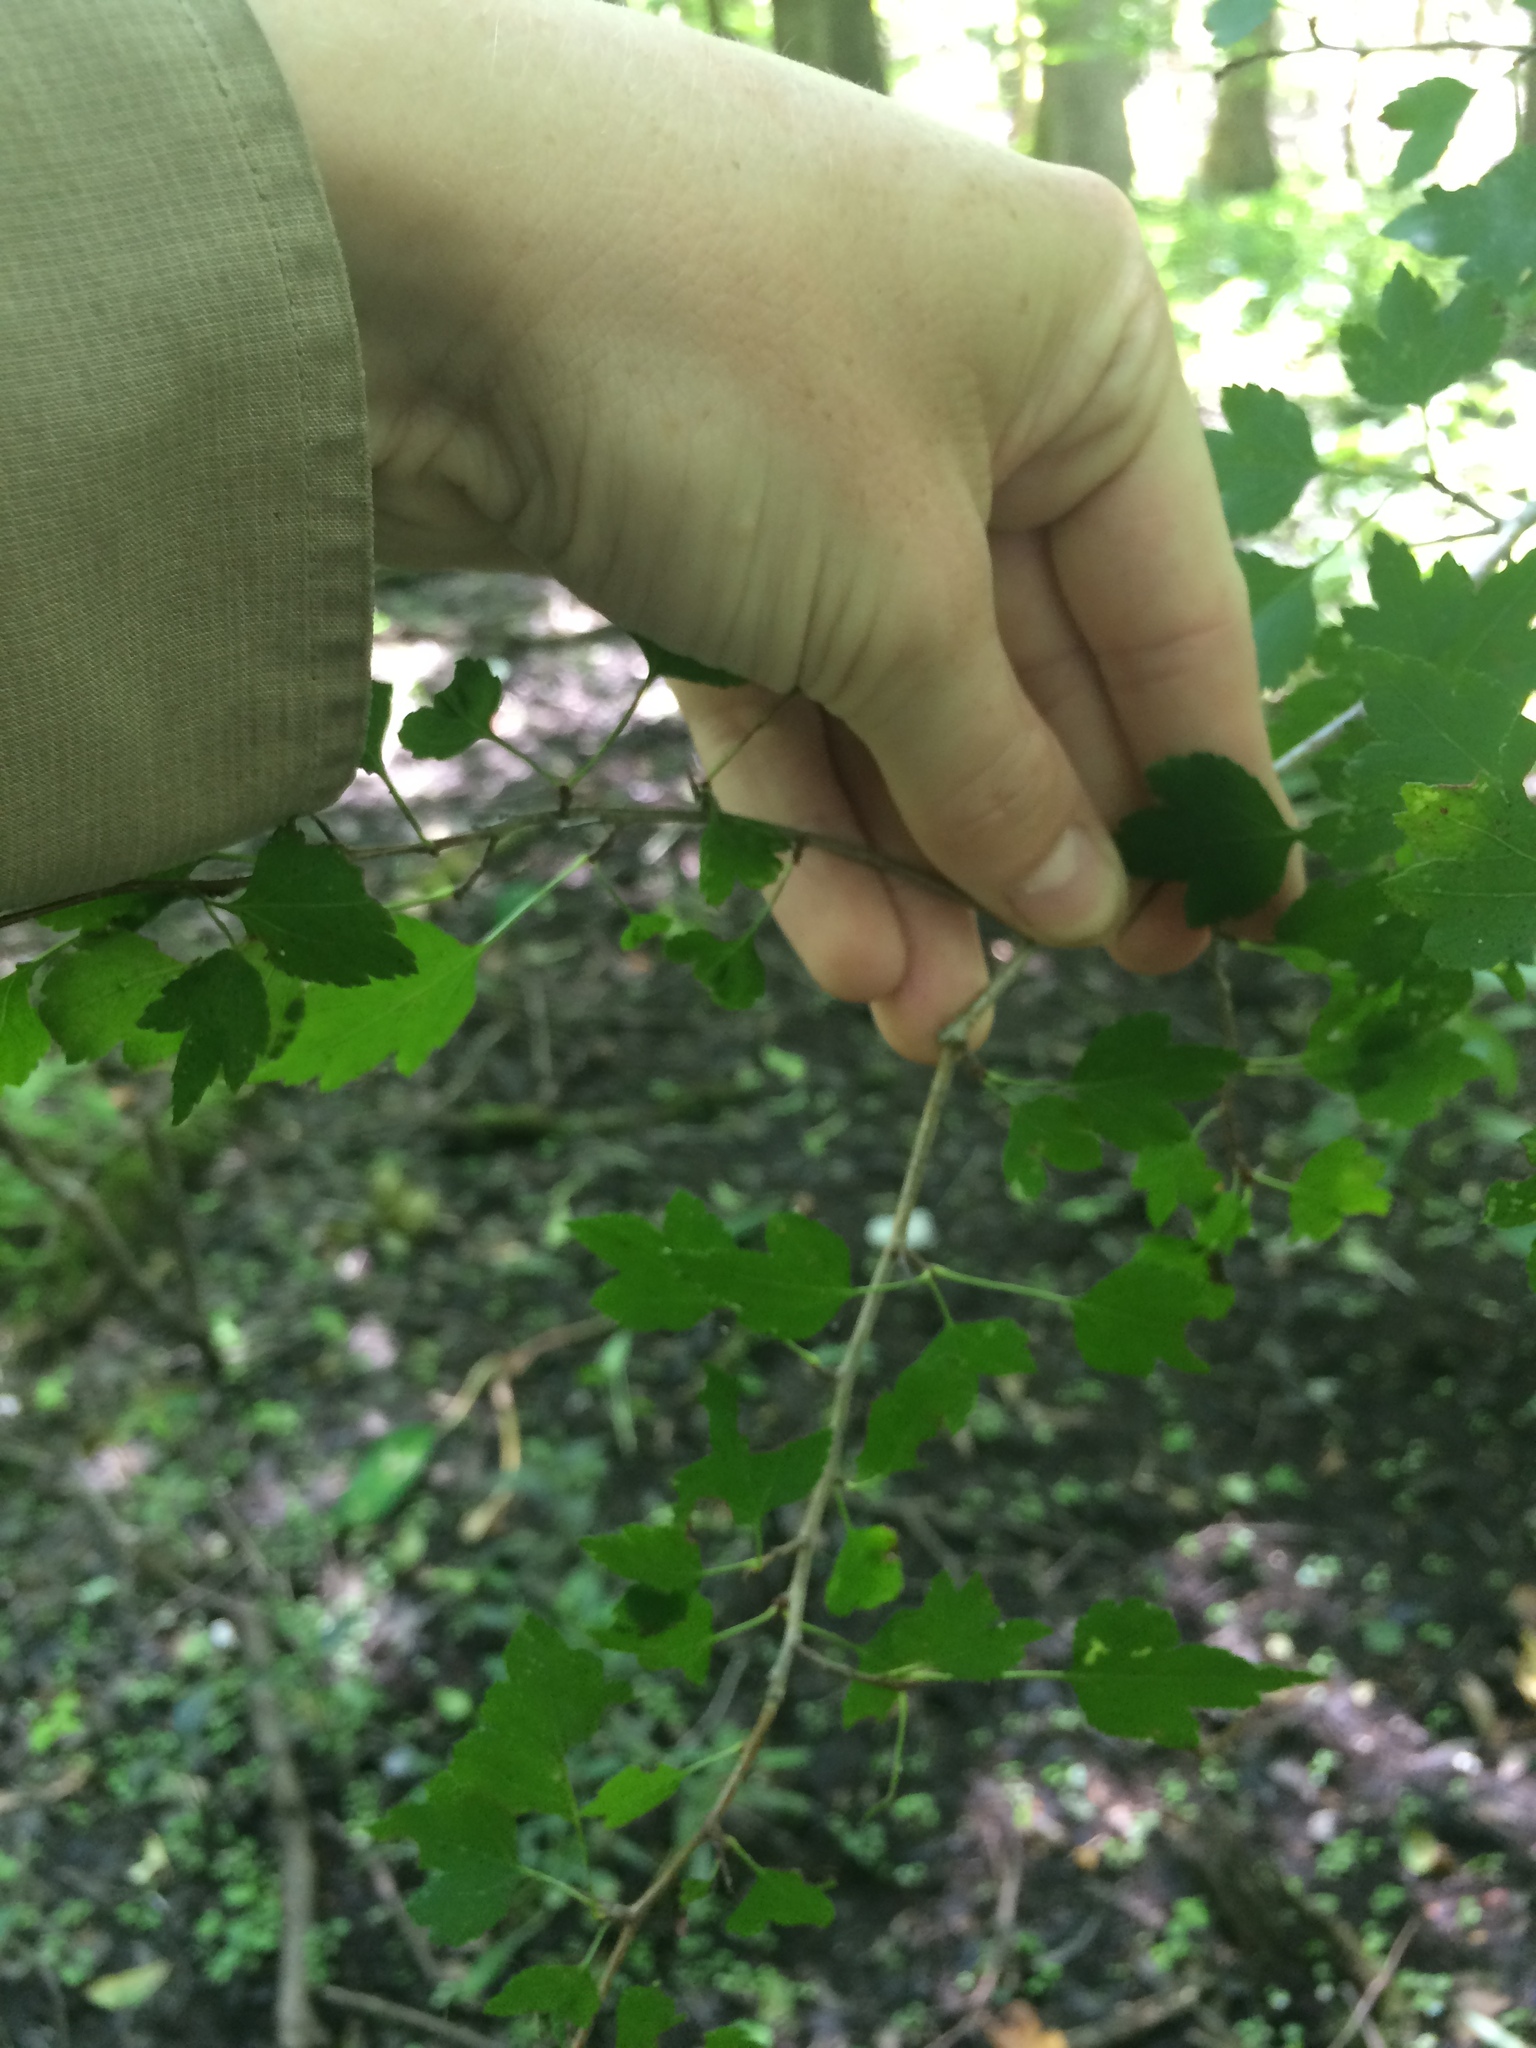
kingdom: Plantae
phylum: Tracheophyta
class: Magnoliopsida
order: Rosales
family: Rosaceae
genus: Crataegus
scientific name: Crataegus phaenopyrum
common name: Washington hawthorn
